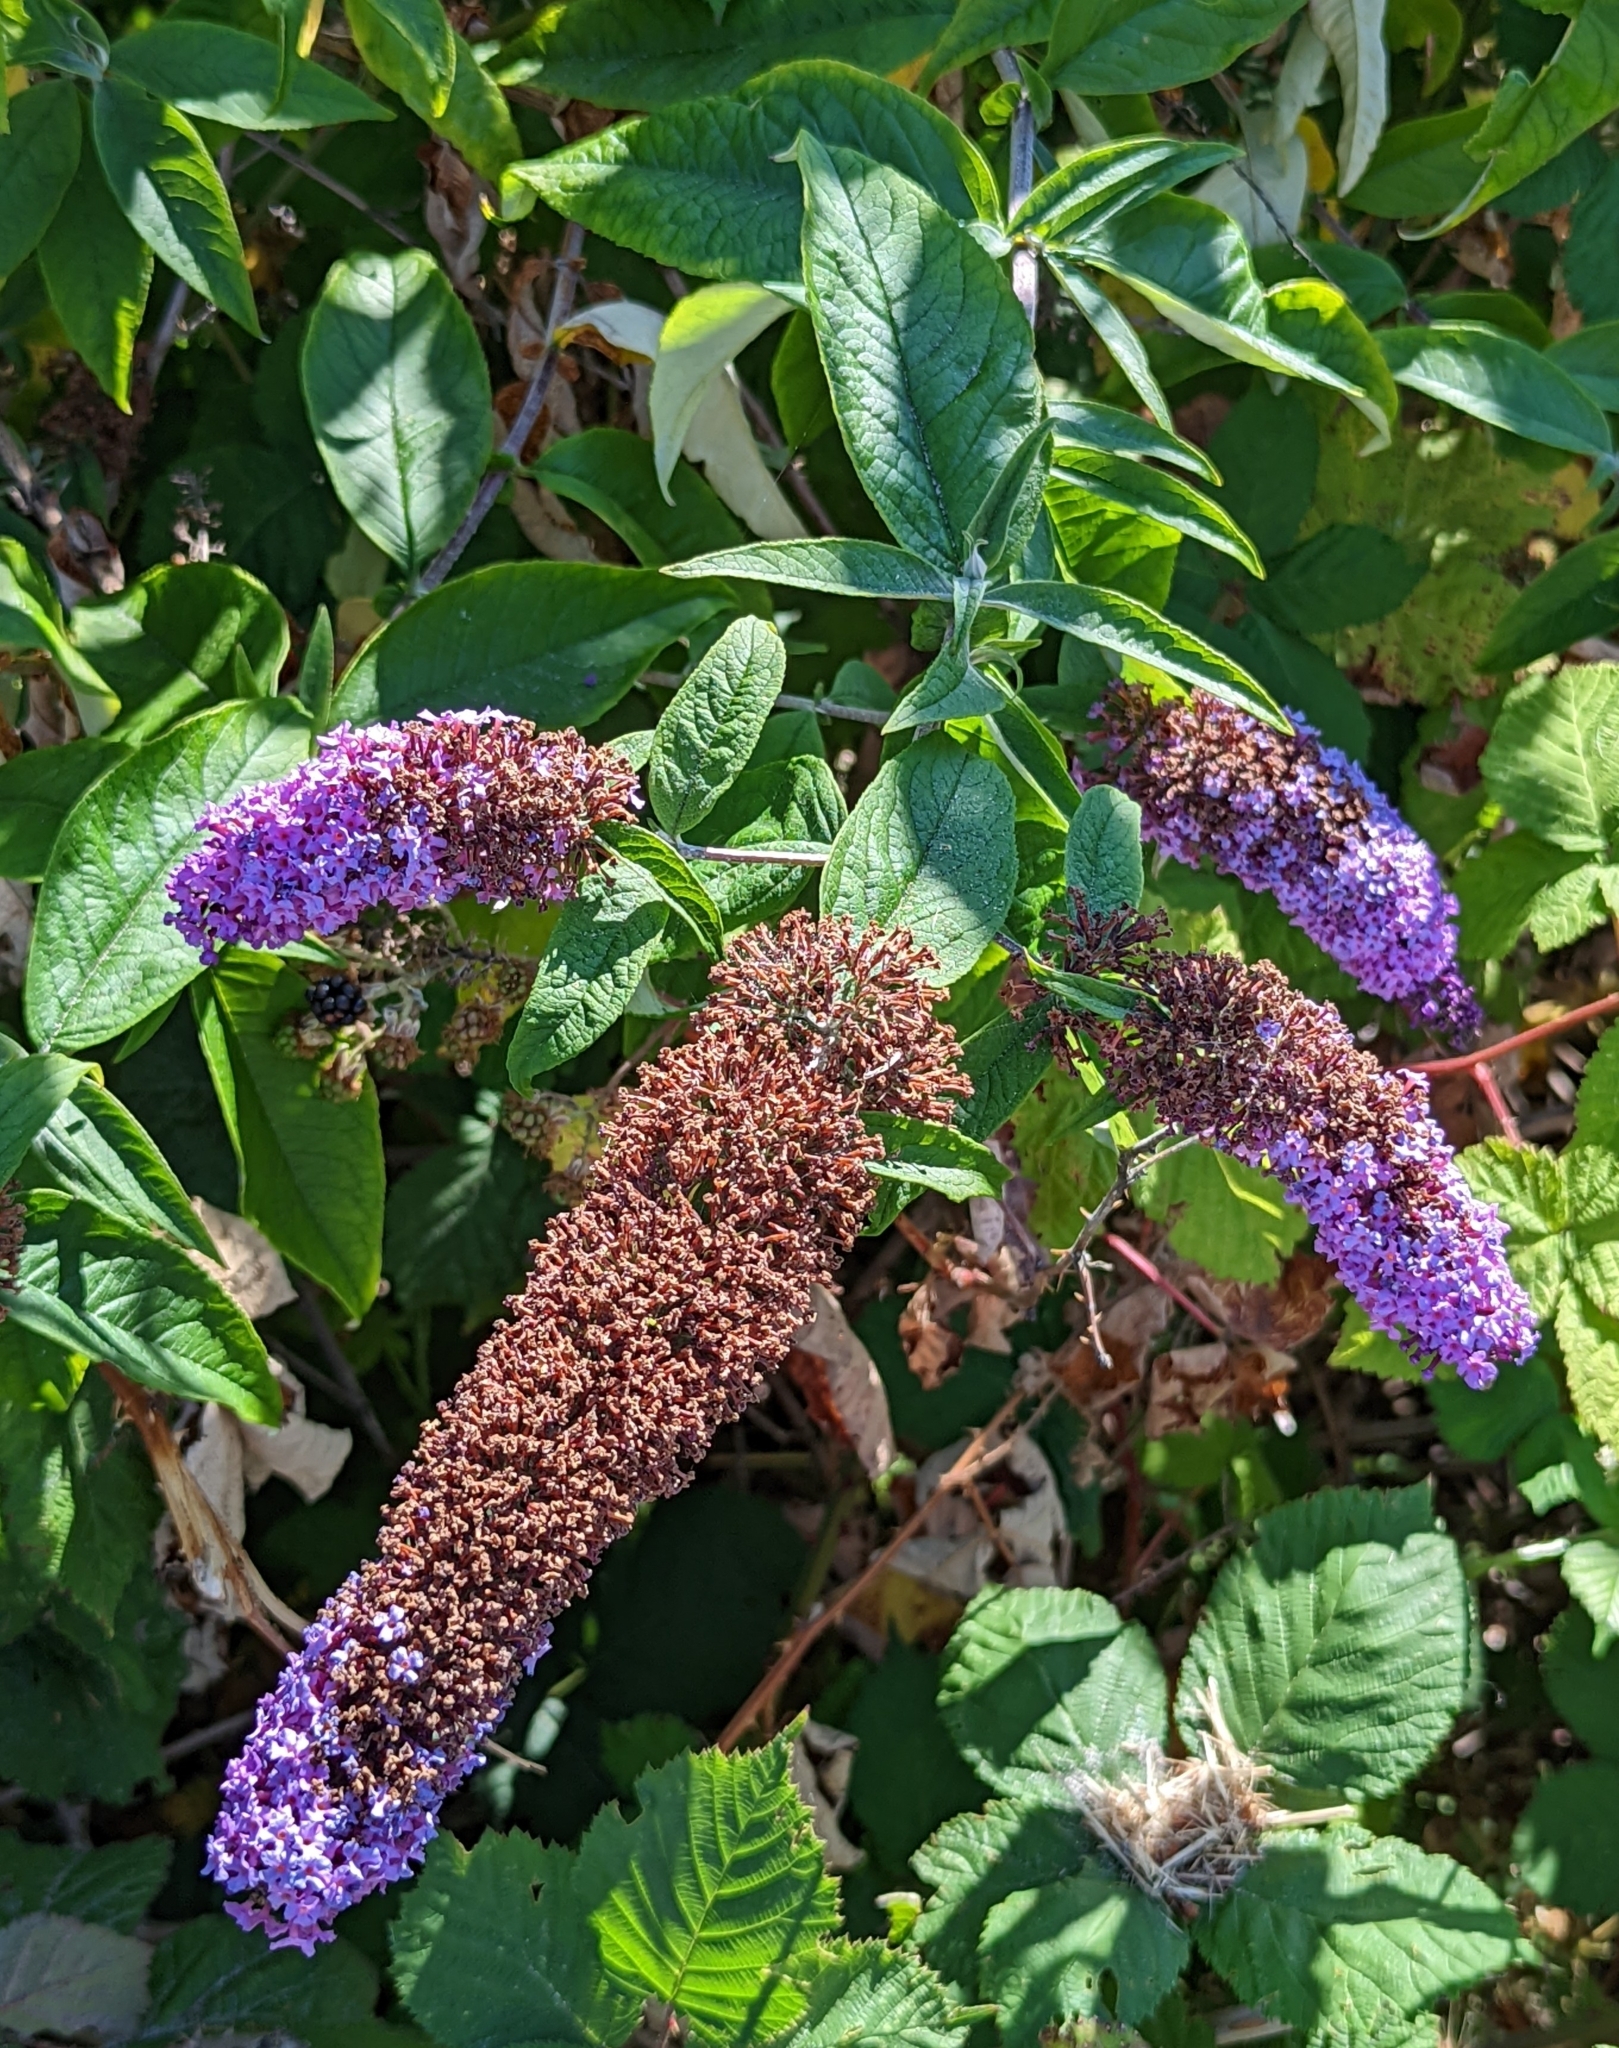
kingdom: Plantae
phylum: Tracheophyta
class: Magnoliopsida
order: Lamiales
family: Scrophulariaceae
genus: Buddleja
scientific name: Buddleja davidii
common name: Butterfly-bush
